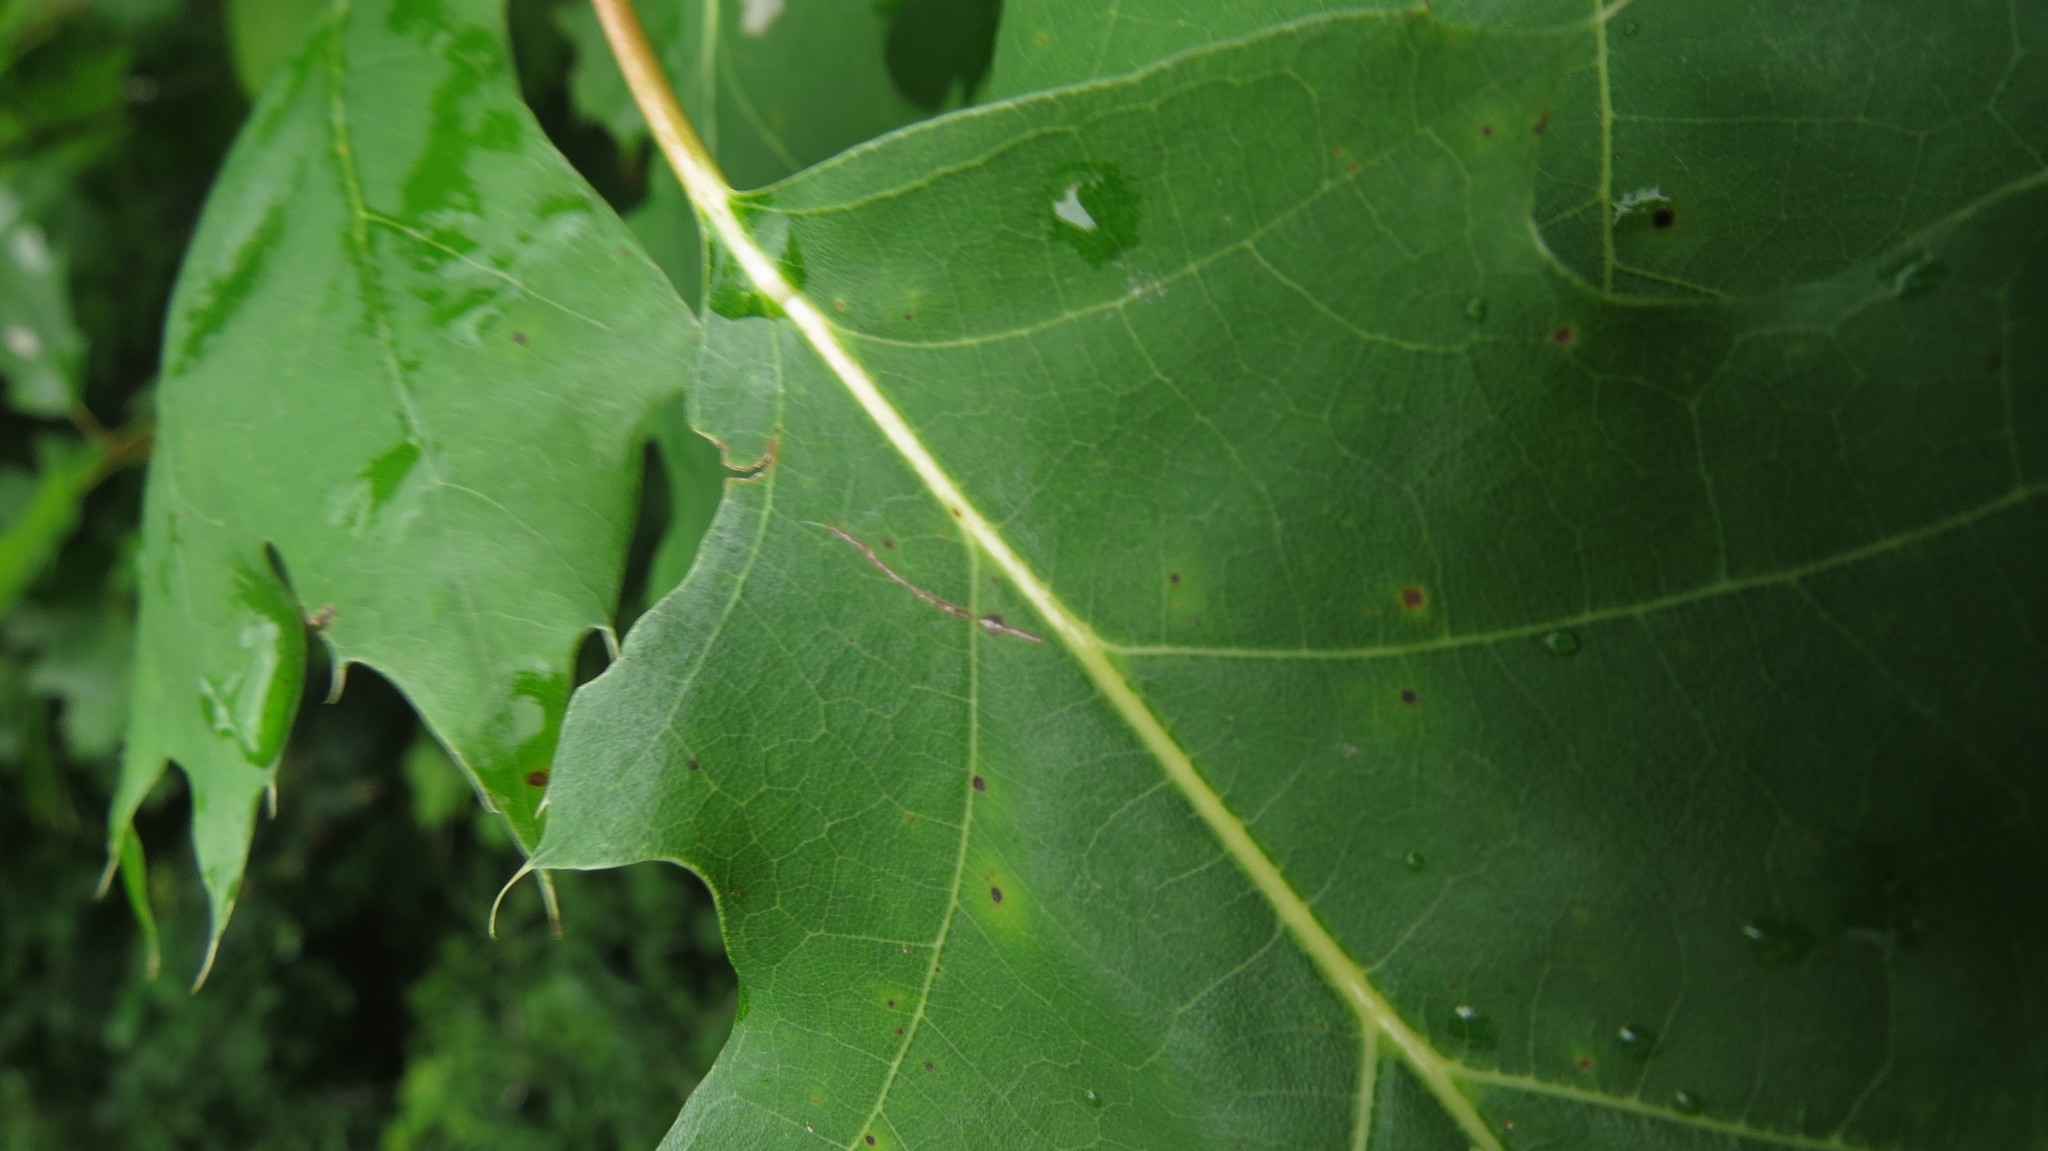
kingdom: Plantae
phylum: Tracheophyta
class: Magnoliopsida
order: Fagales
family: Fagaceae
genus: Quercus
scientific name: Quercus rubra
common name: Red oak
